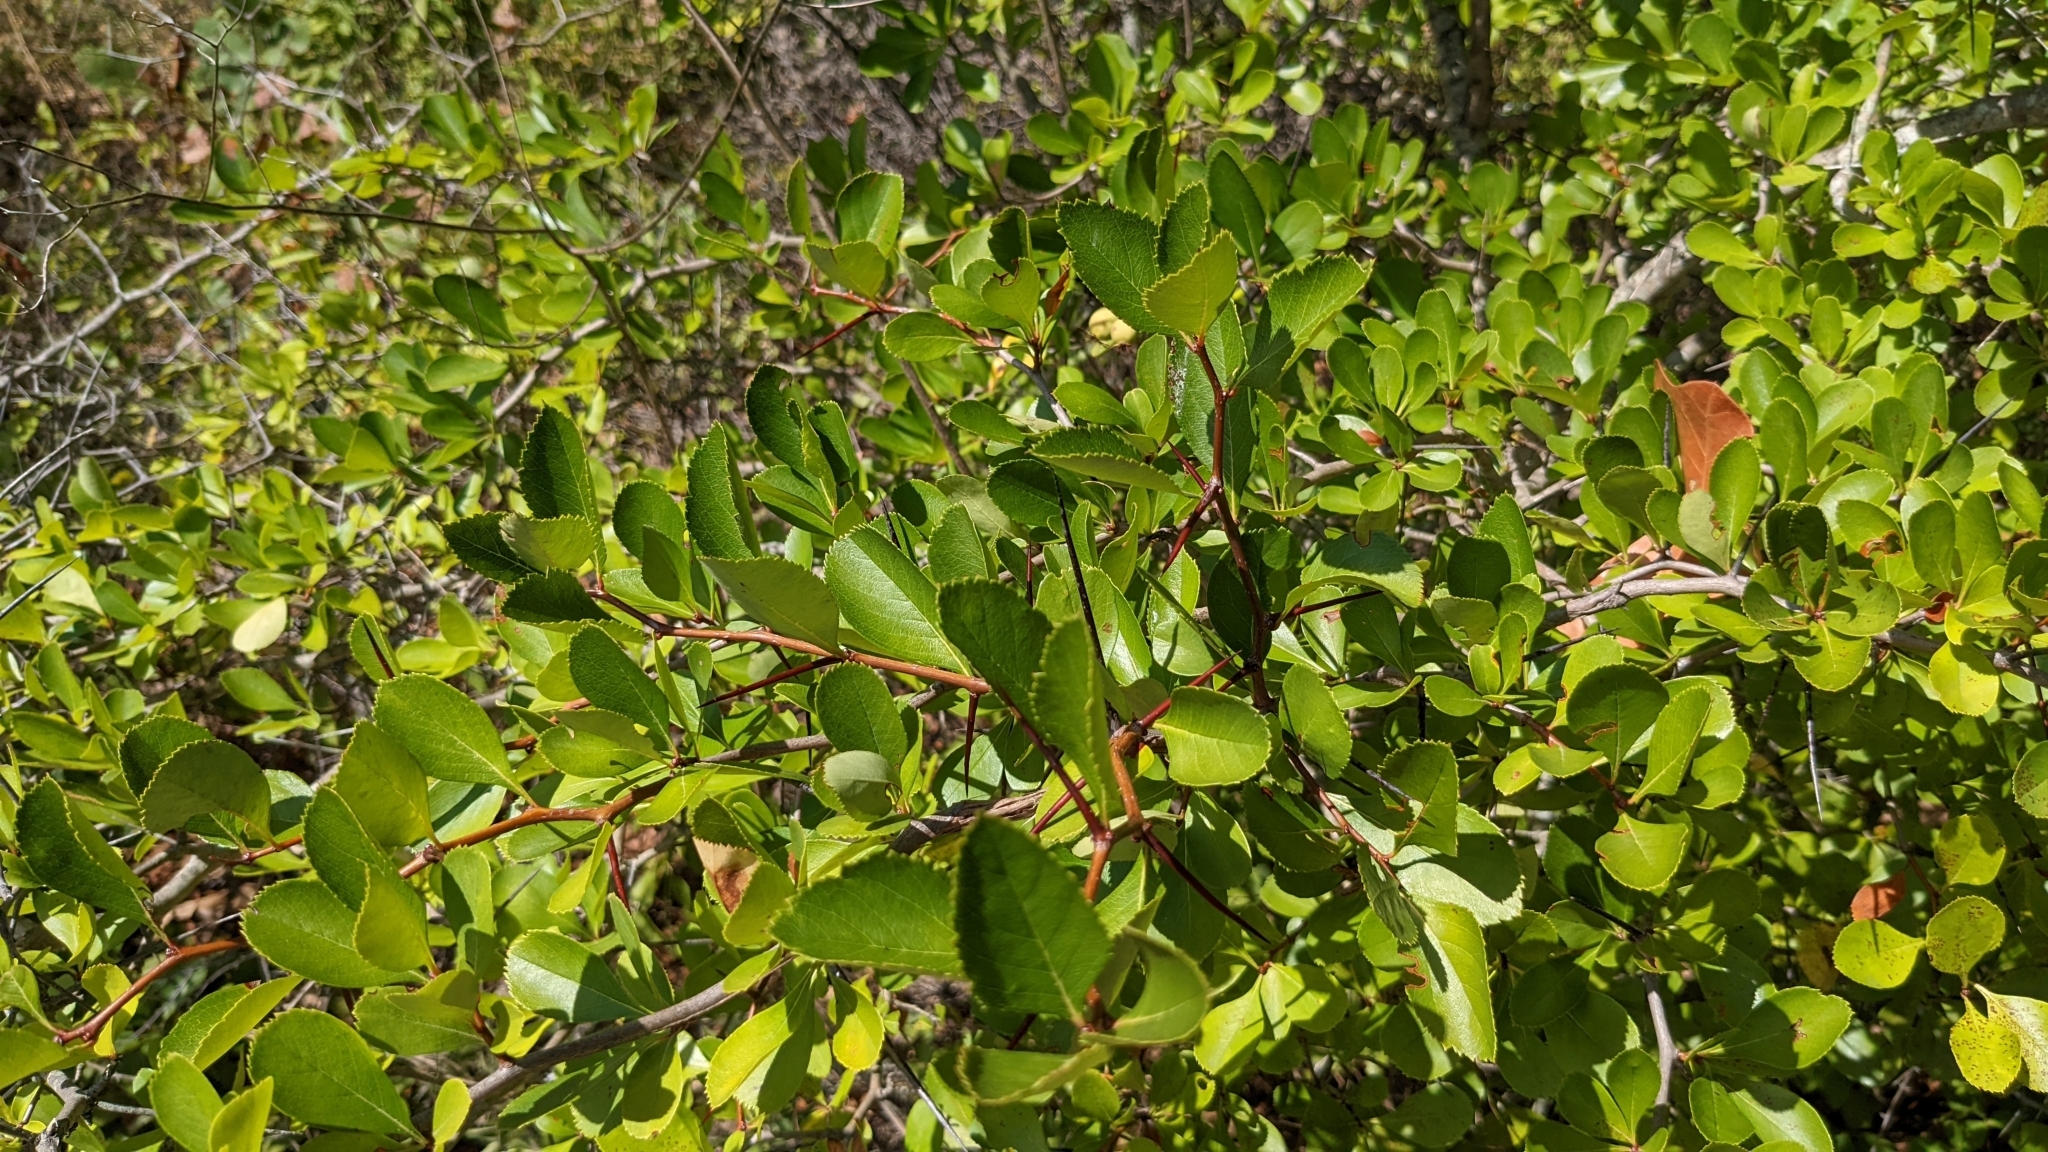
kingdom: Plantae
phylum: Tracheophyta
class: Magnoliopsida
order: Rosales
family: Rosaceae
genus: Crataegus
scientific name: Crataegus crus-galli
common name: Cockspurthorn
